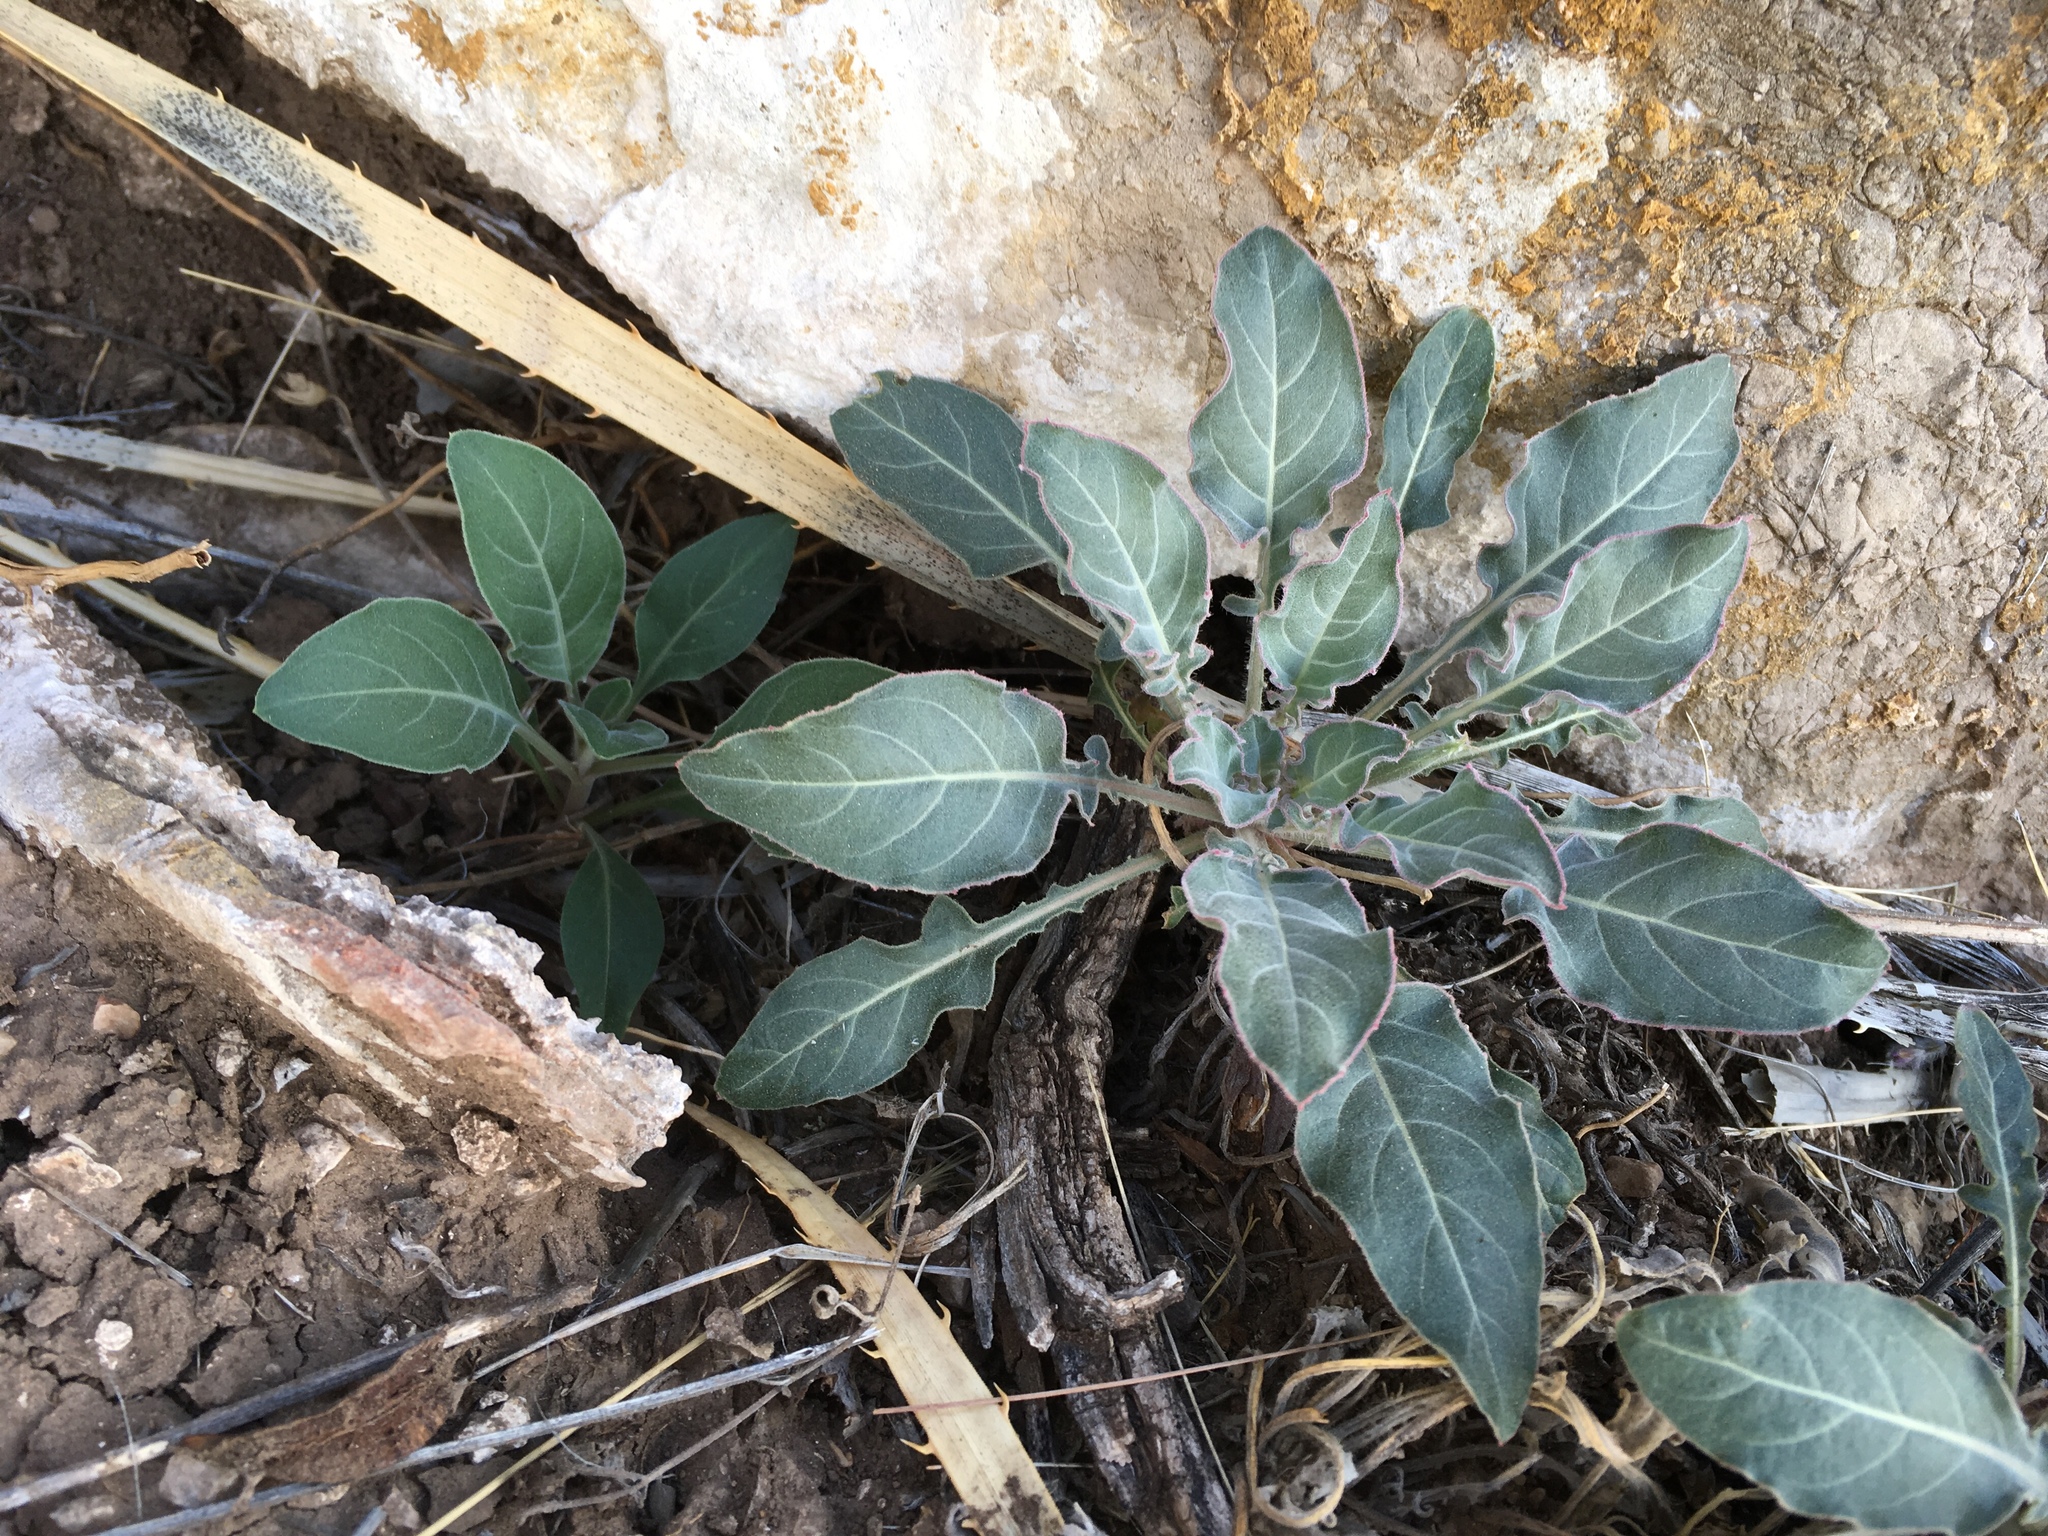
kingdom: Plantae
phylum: Tracheophyta
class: Magnoliopsida
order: Myrtales
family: Onagraceae
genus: Oenothera
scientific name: Oenothera brachycarpa
